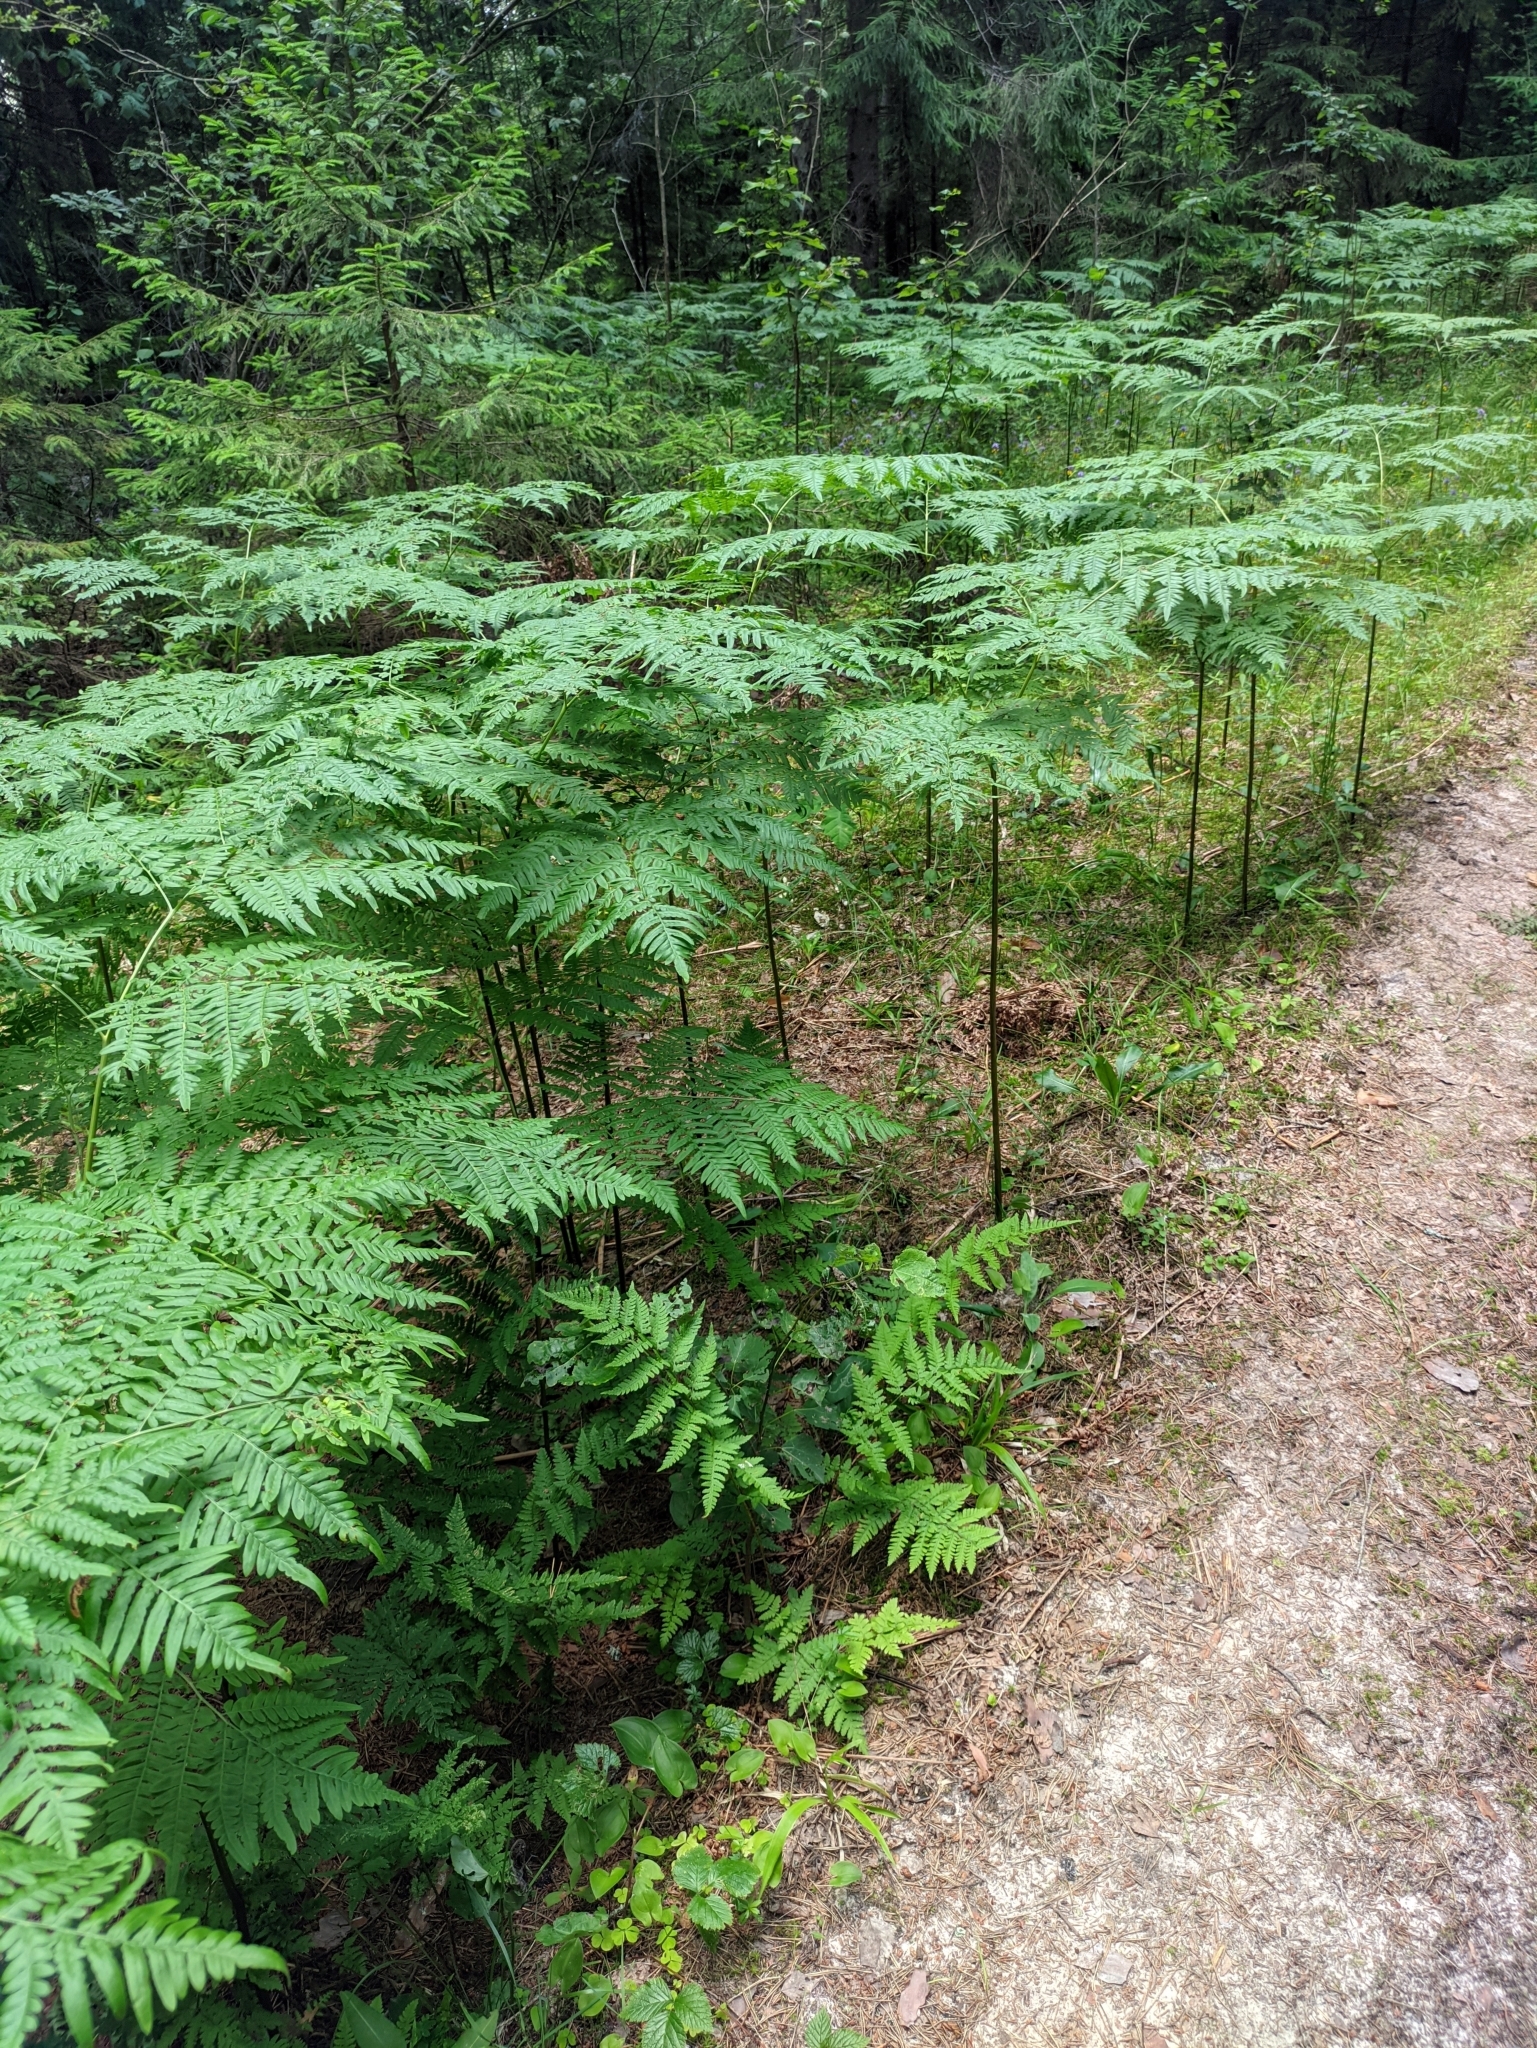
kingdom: Plantae
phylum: Tracheophyta
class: Polypodiopsida
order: Polypodiales
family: Dennstaedtiaceae
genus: Pteridium
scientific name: Pteridium aquilinum
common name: Bracken
